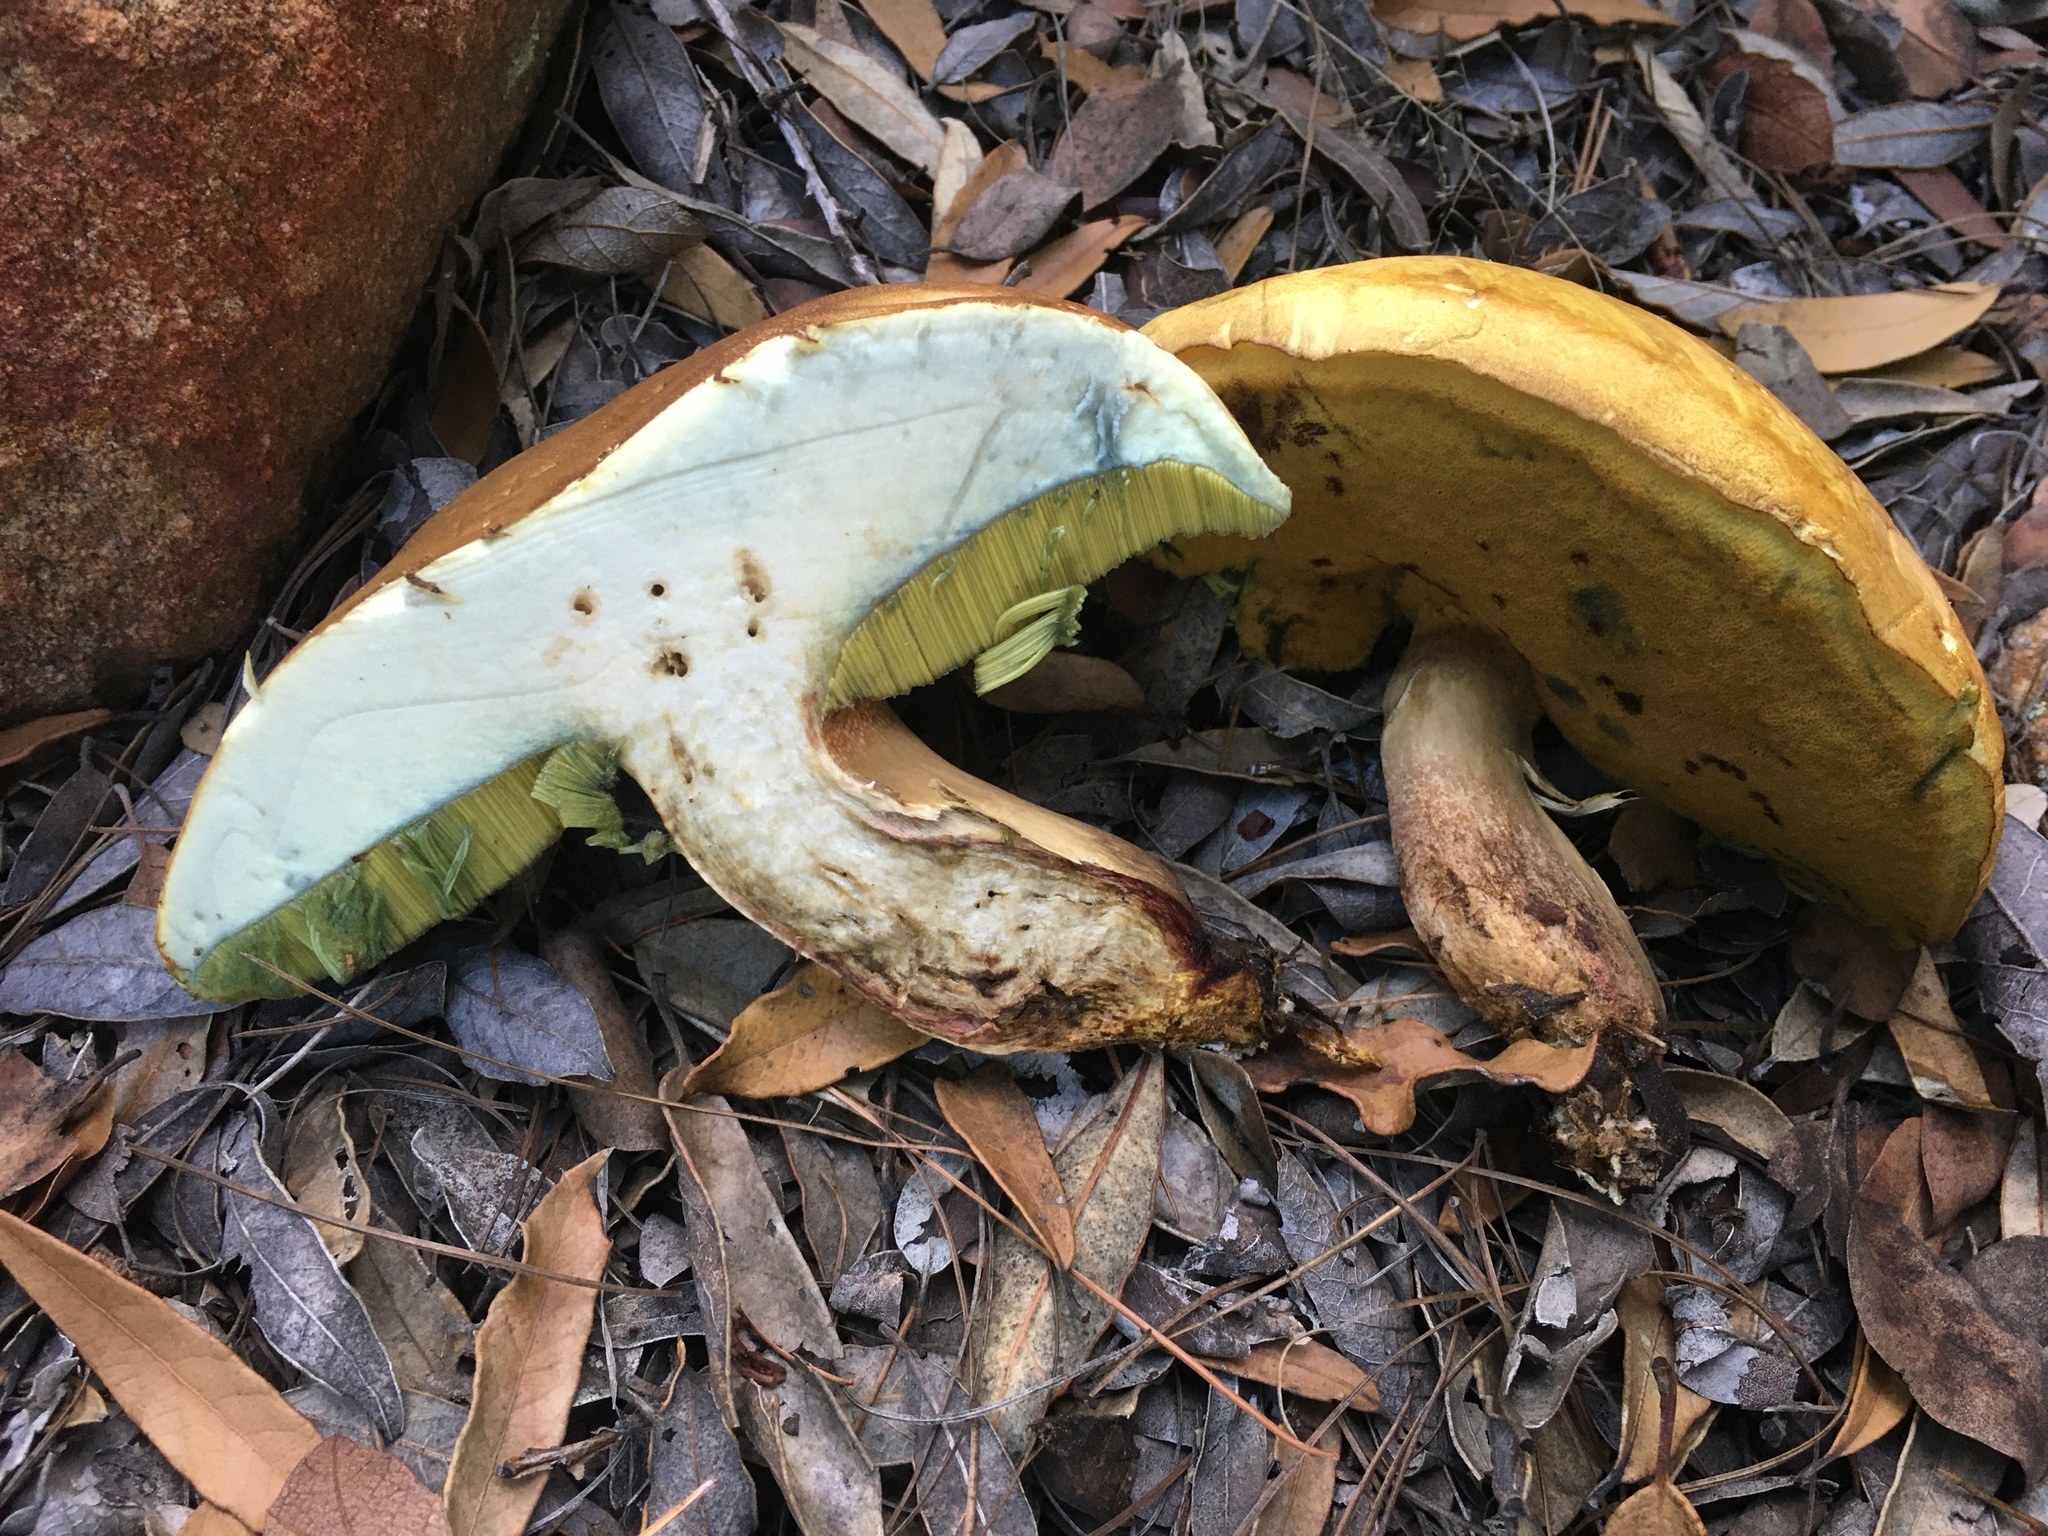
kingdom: Fungi
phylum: Basidiomycota
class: Agaricomycetes
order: Boletales
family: Boletaceae
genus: Boletus
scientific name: Boletus vermiculosoides
